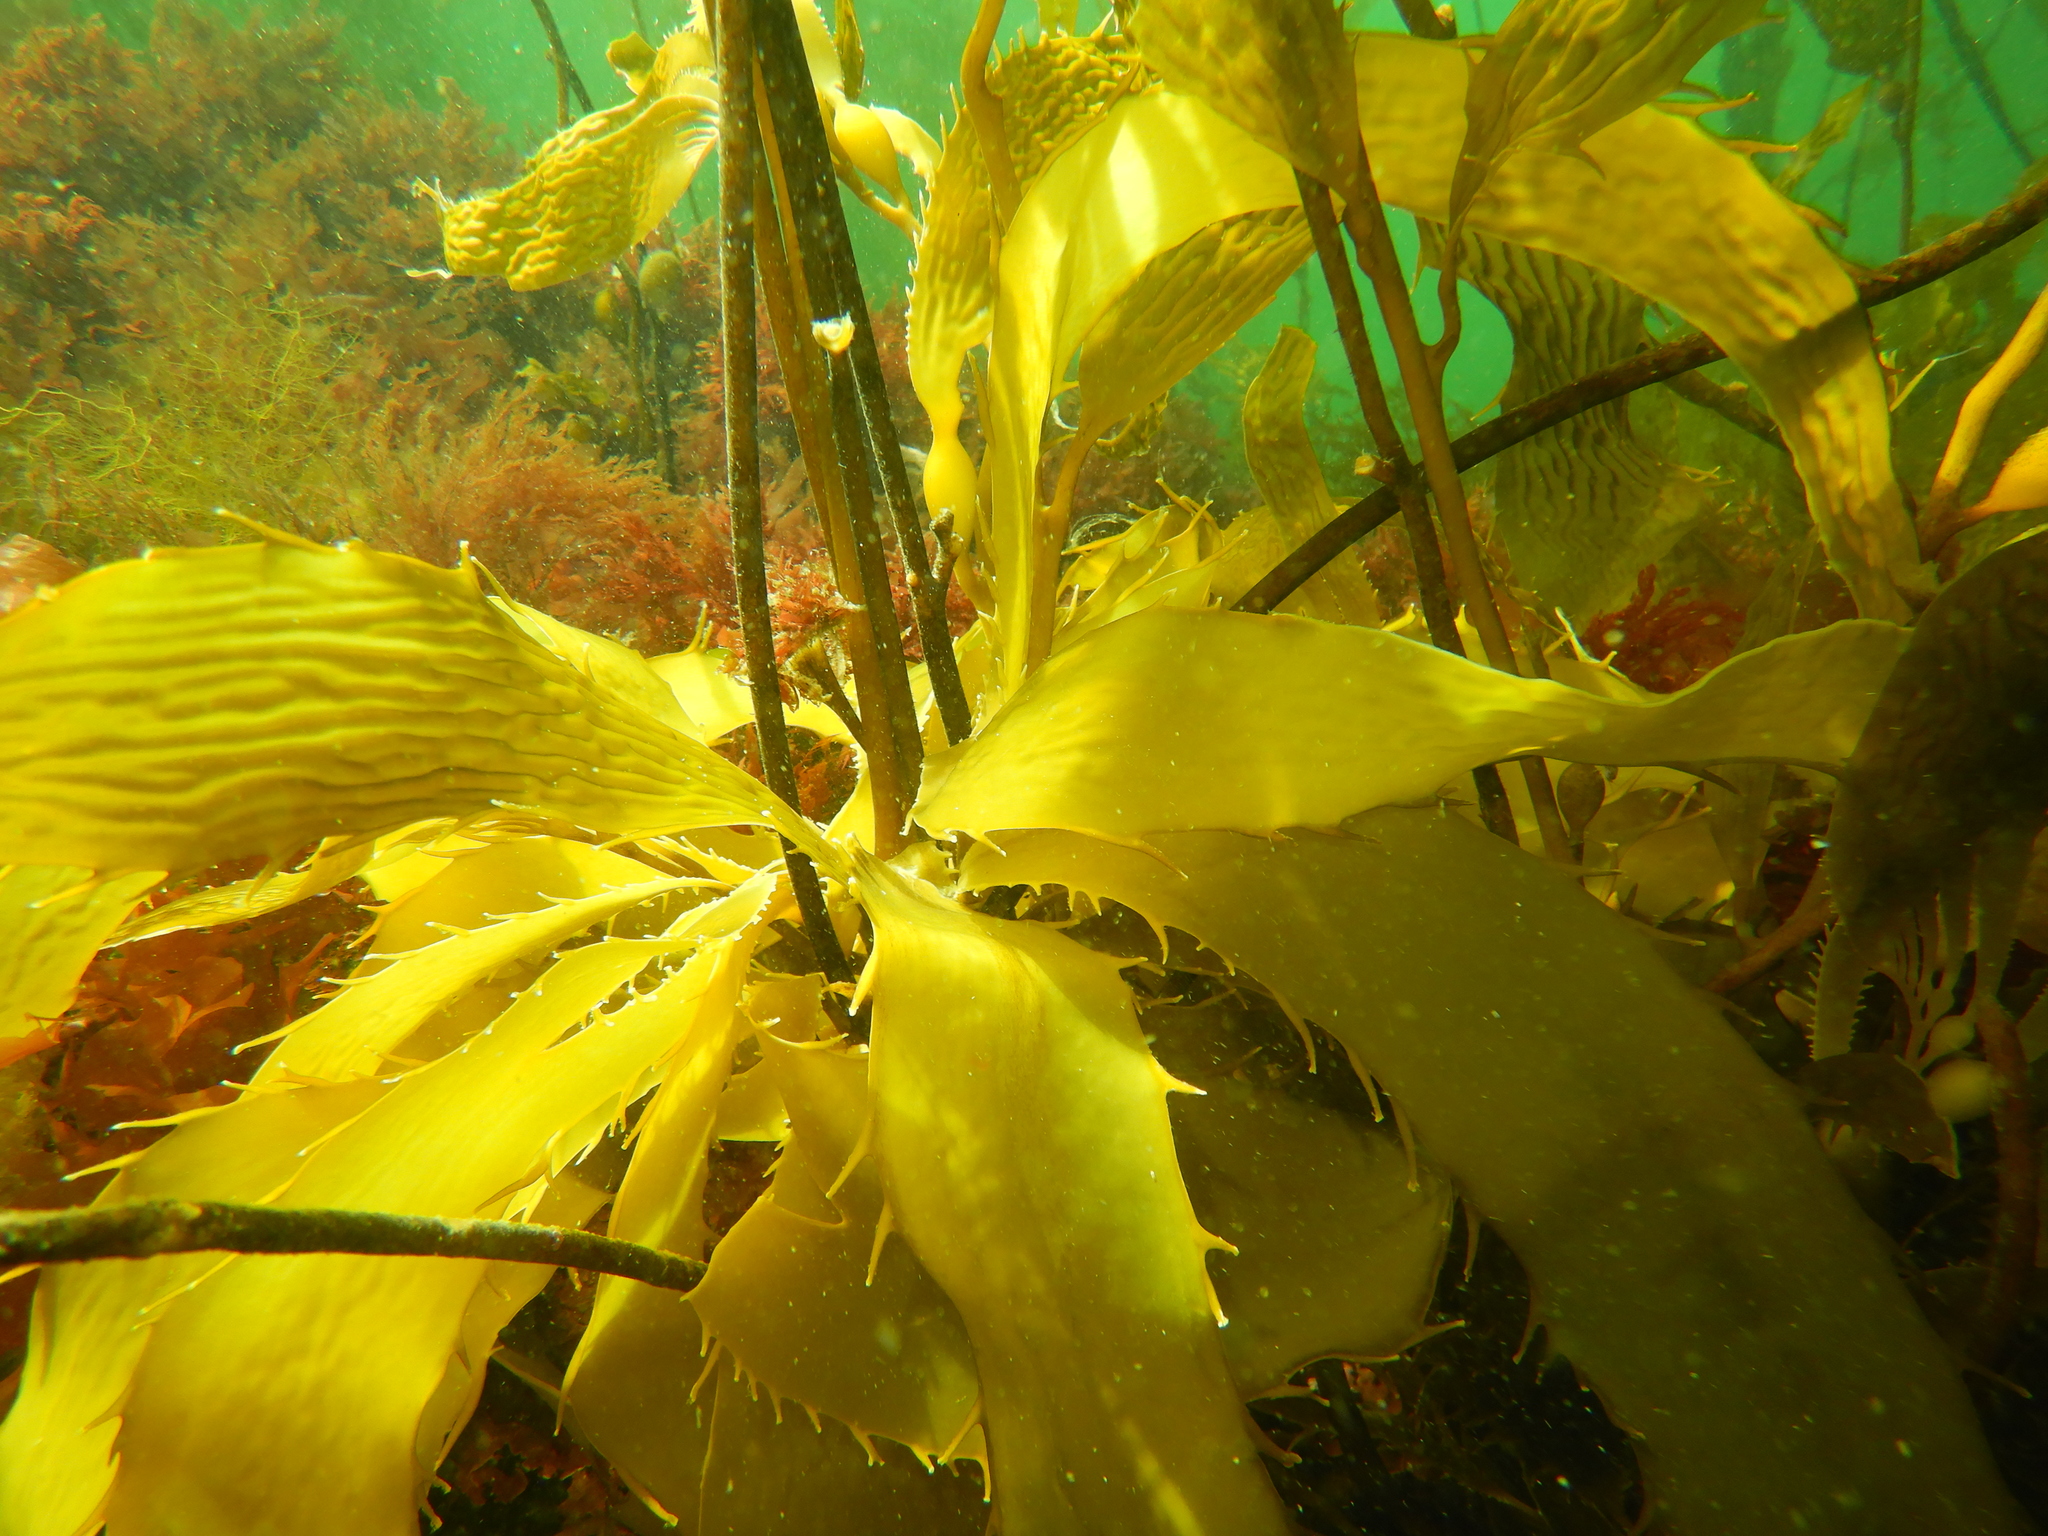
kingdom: Chromista
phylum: Ochrophyta
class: Phaeophyceae
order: Laminariales
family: Laminariaceae
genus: Macrocystis
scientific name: Macrocystis pyrifera
